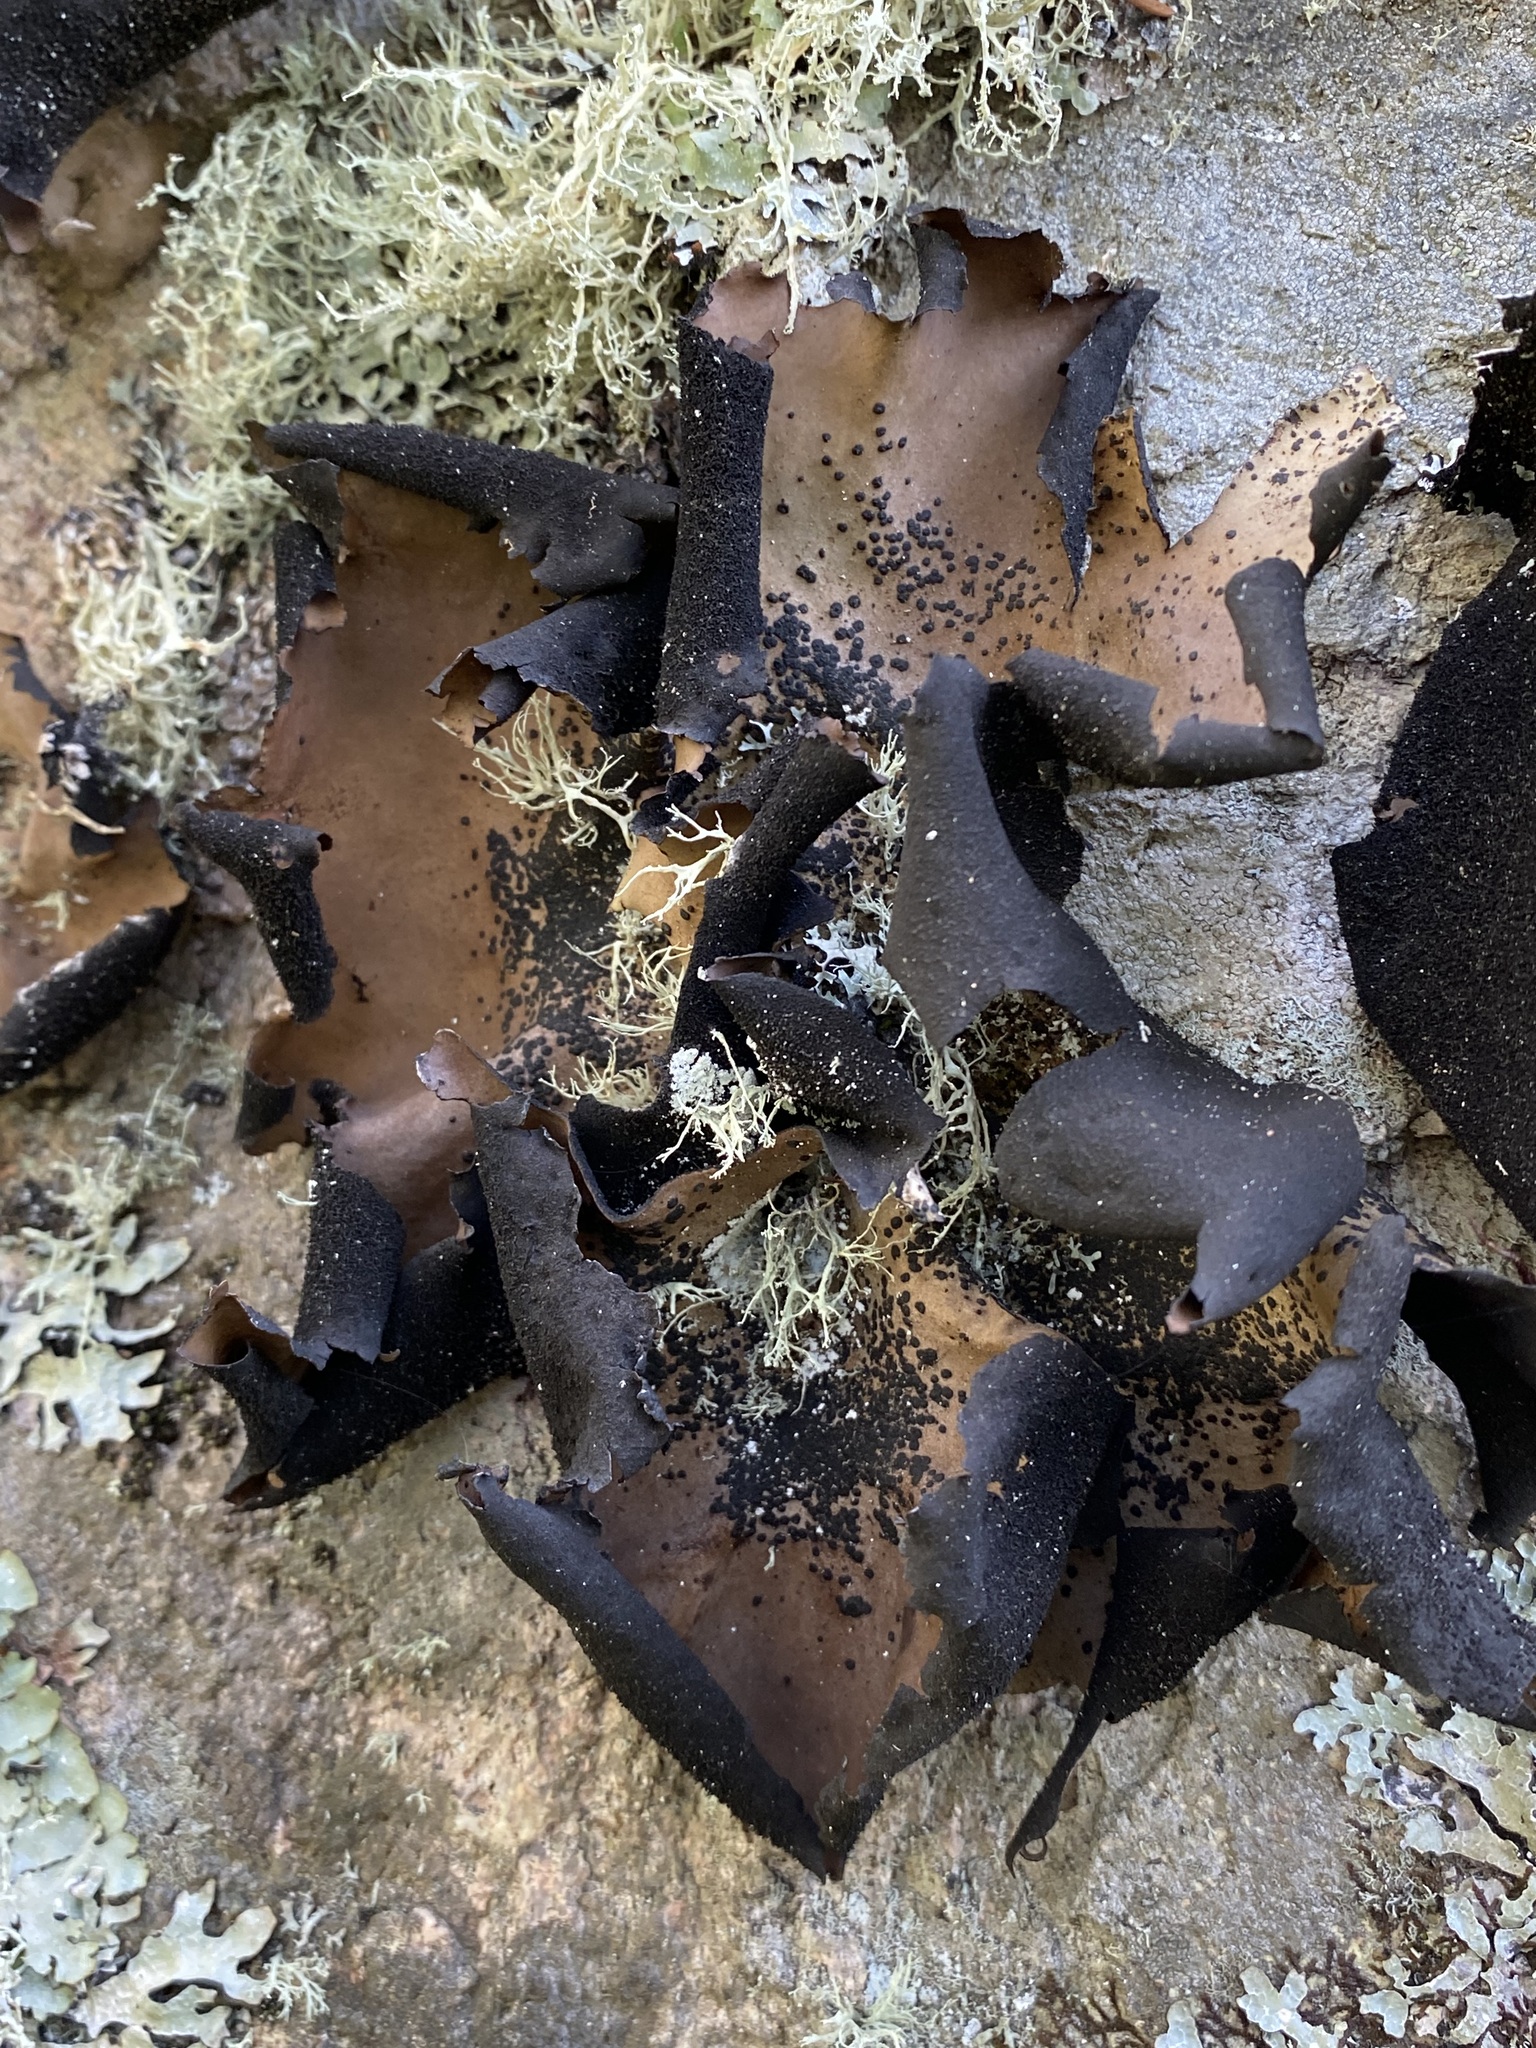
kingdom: Fungi
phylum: Ascomycota
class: Lecanoromycetes
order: Umbilicariales
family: Umbilicariaceae
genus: Umbilicaria
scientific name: Umbilicaria mammulata
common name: Smooth rock tripe
